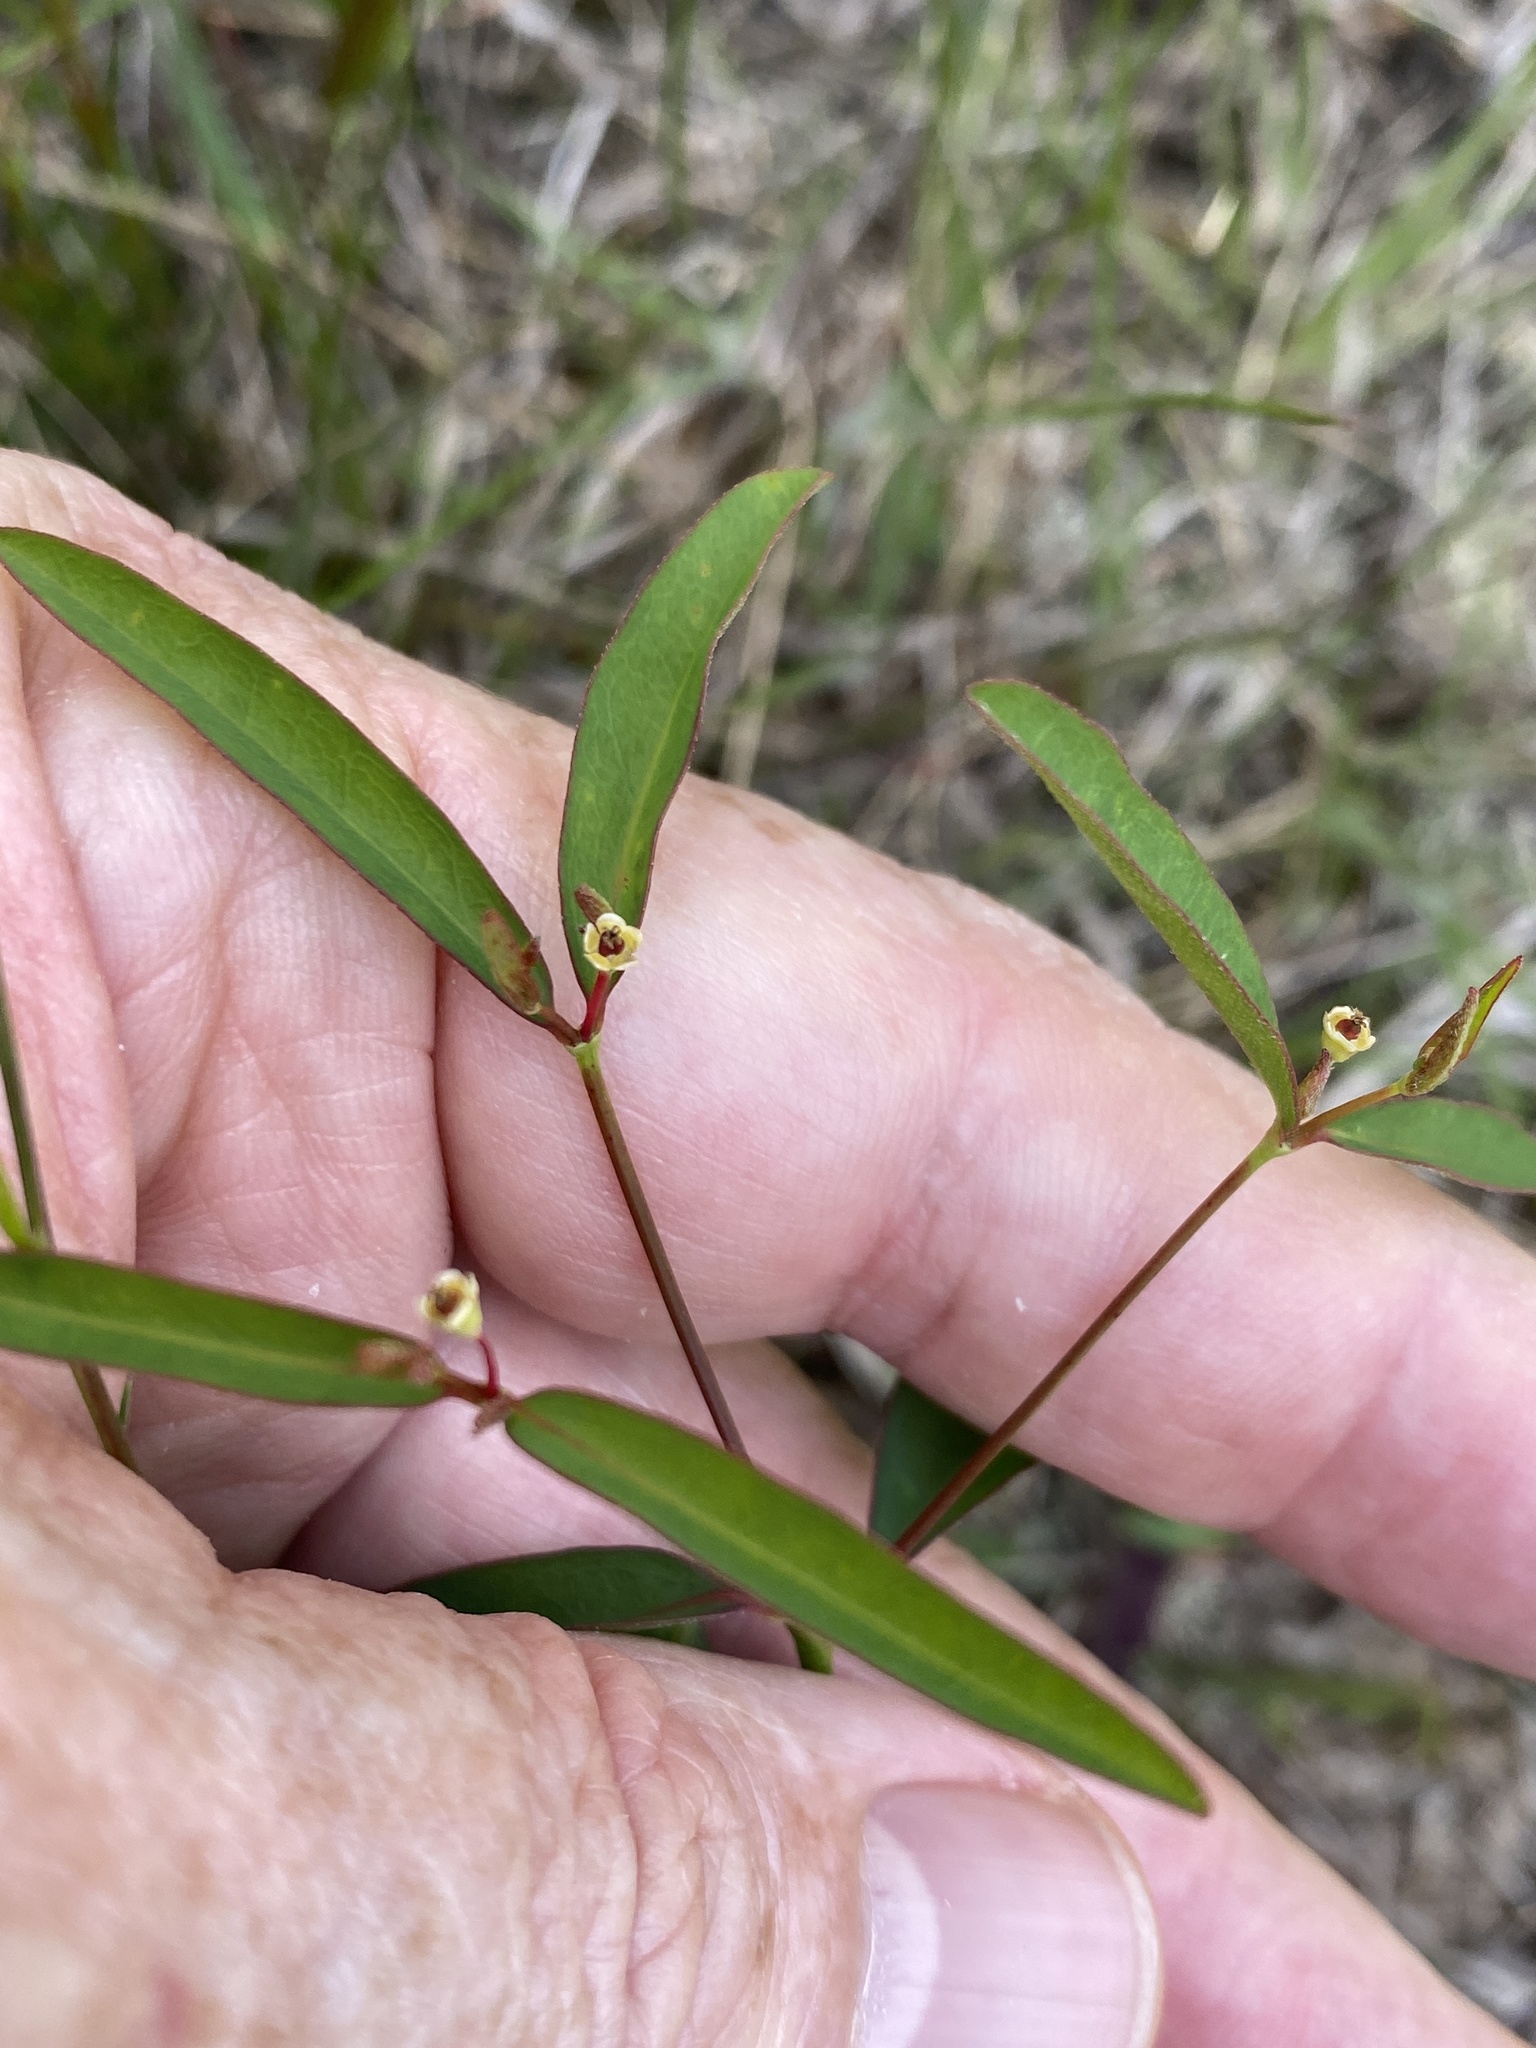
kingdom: Plantae
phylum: Tracheophyta
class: Magnoliopsida
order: Malpighiales
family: Euphorbiaceae
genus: Euphorbia
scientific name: Euphorbia curtisii
